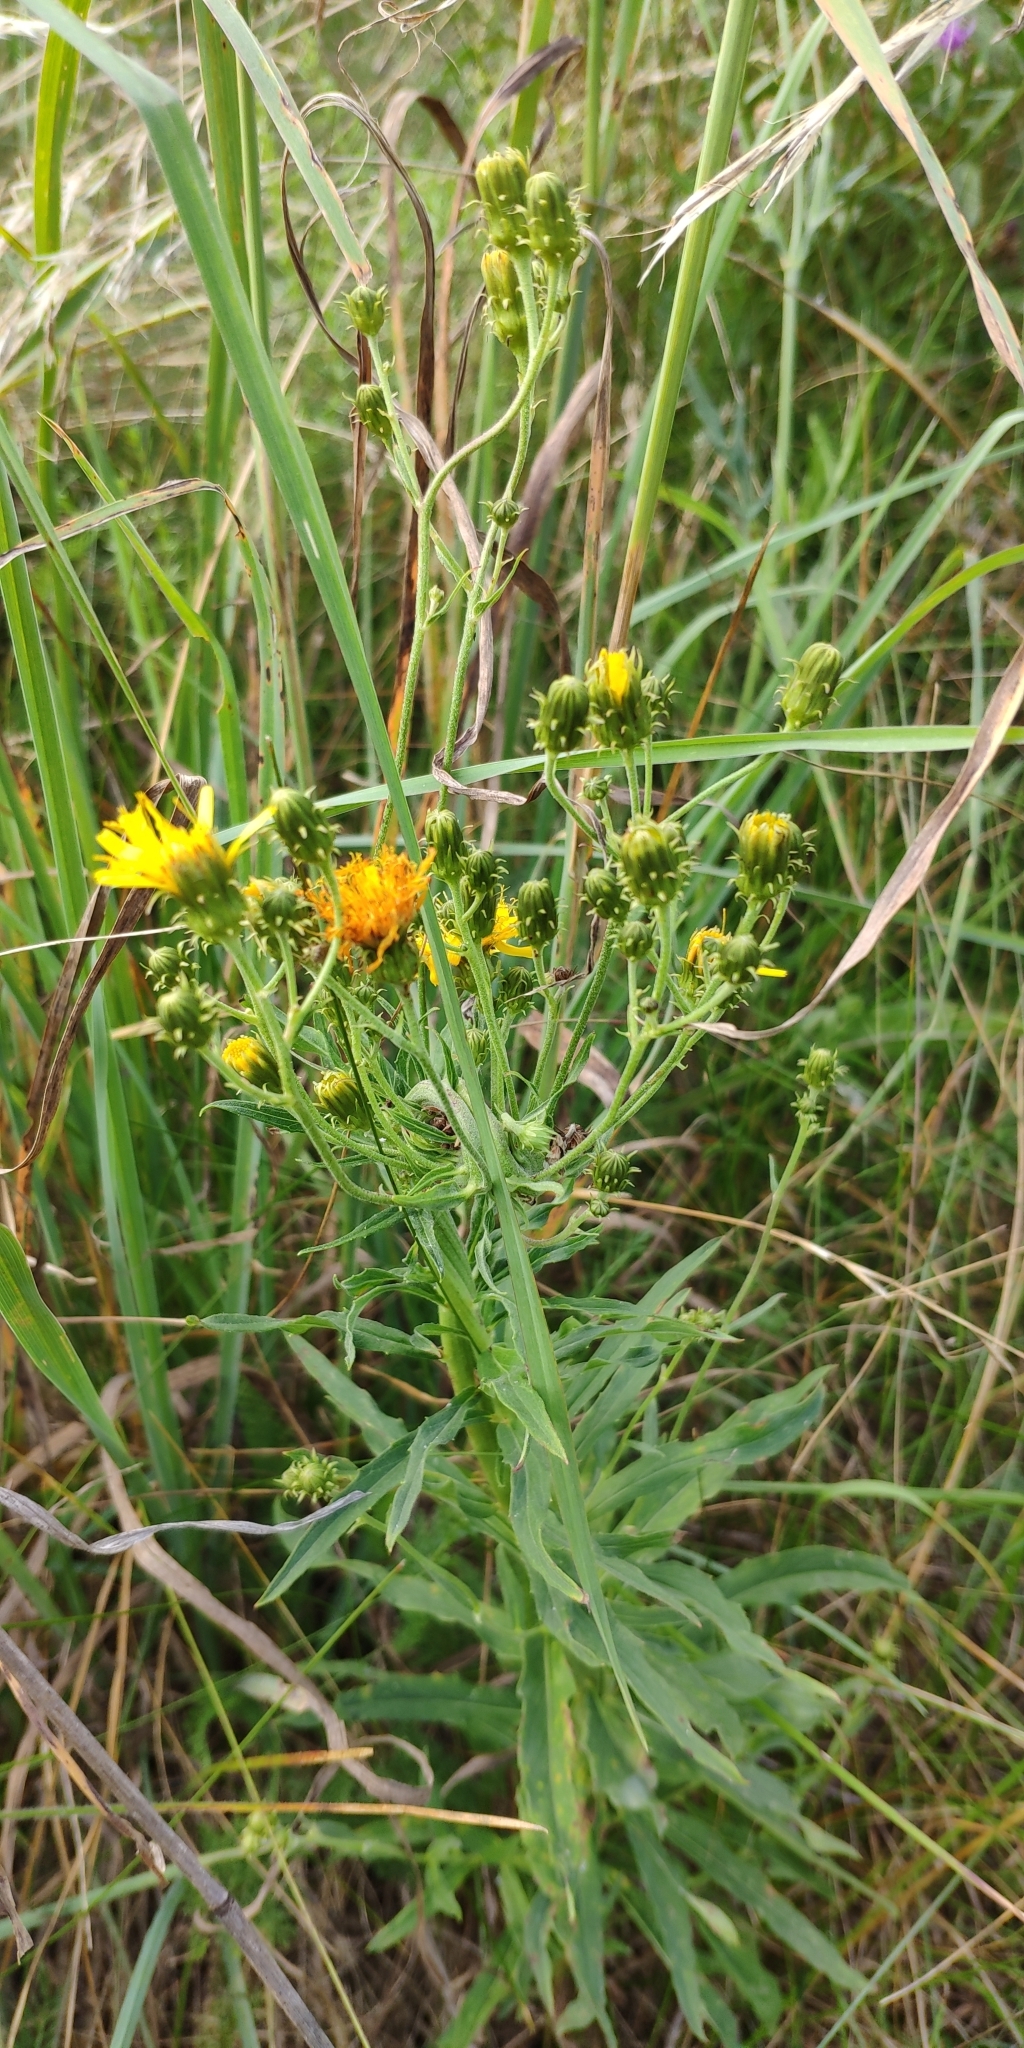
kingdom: Plantae
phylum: Tracheophyta
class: Magnoliopsida
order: Asterales
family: Asteraceae
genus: Hieracium
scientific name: Hieracium umbellatum
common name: Northern hawkweed
